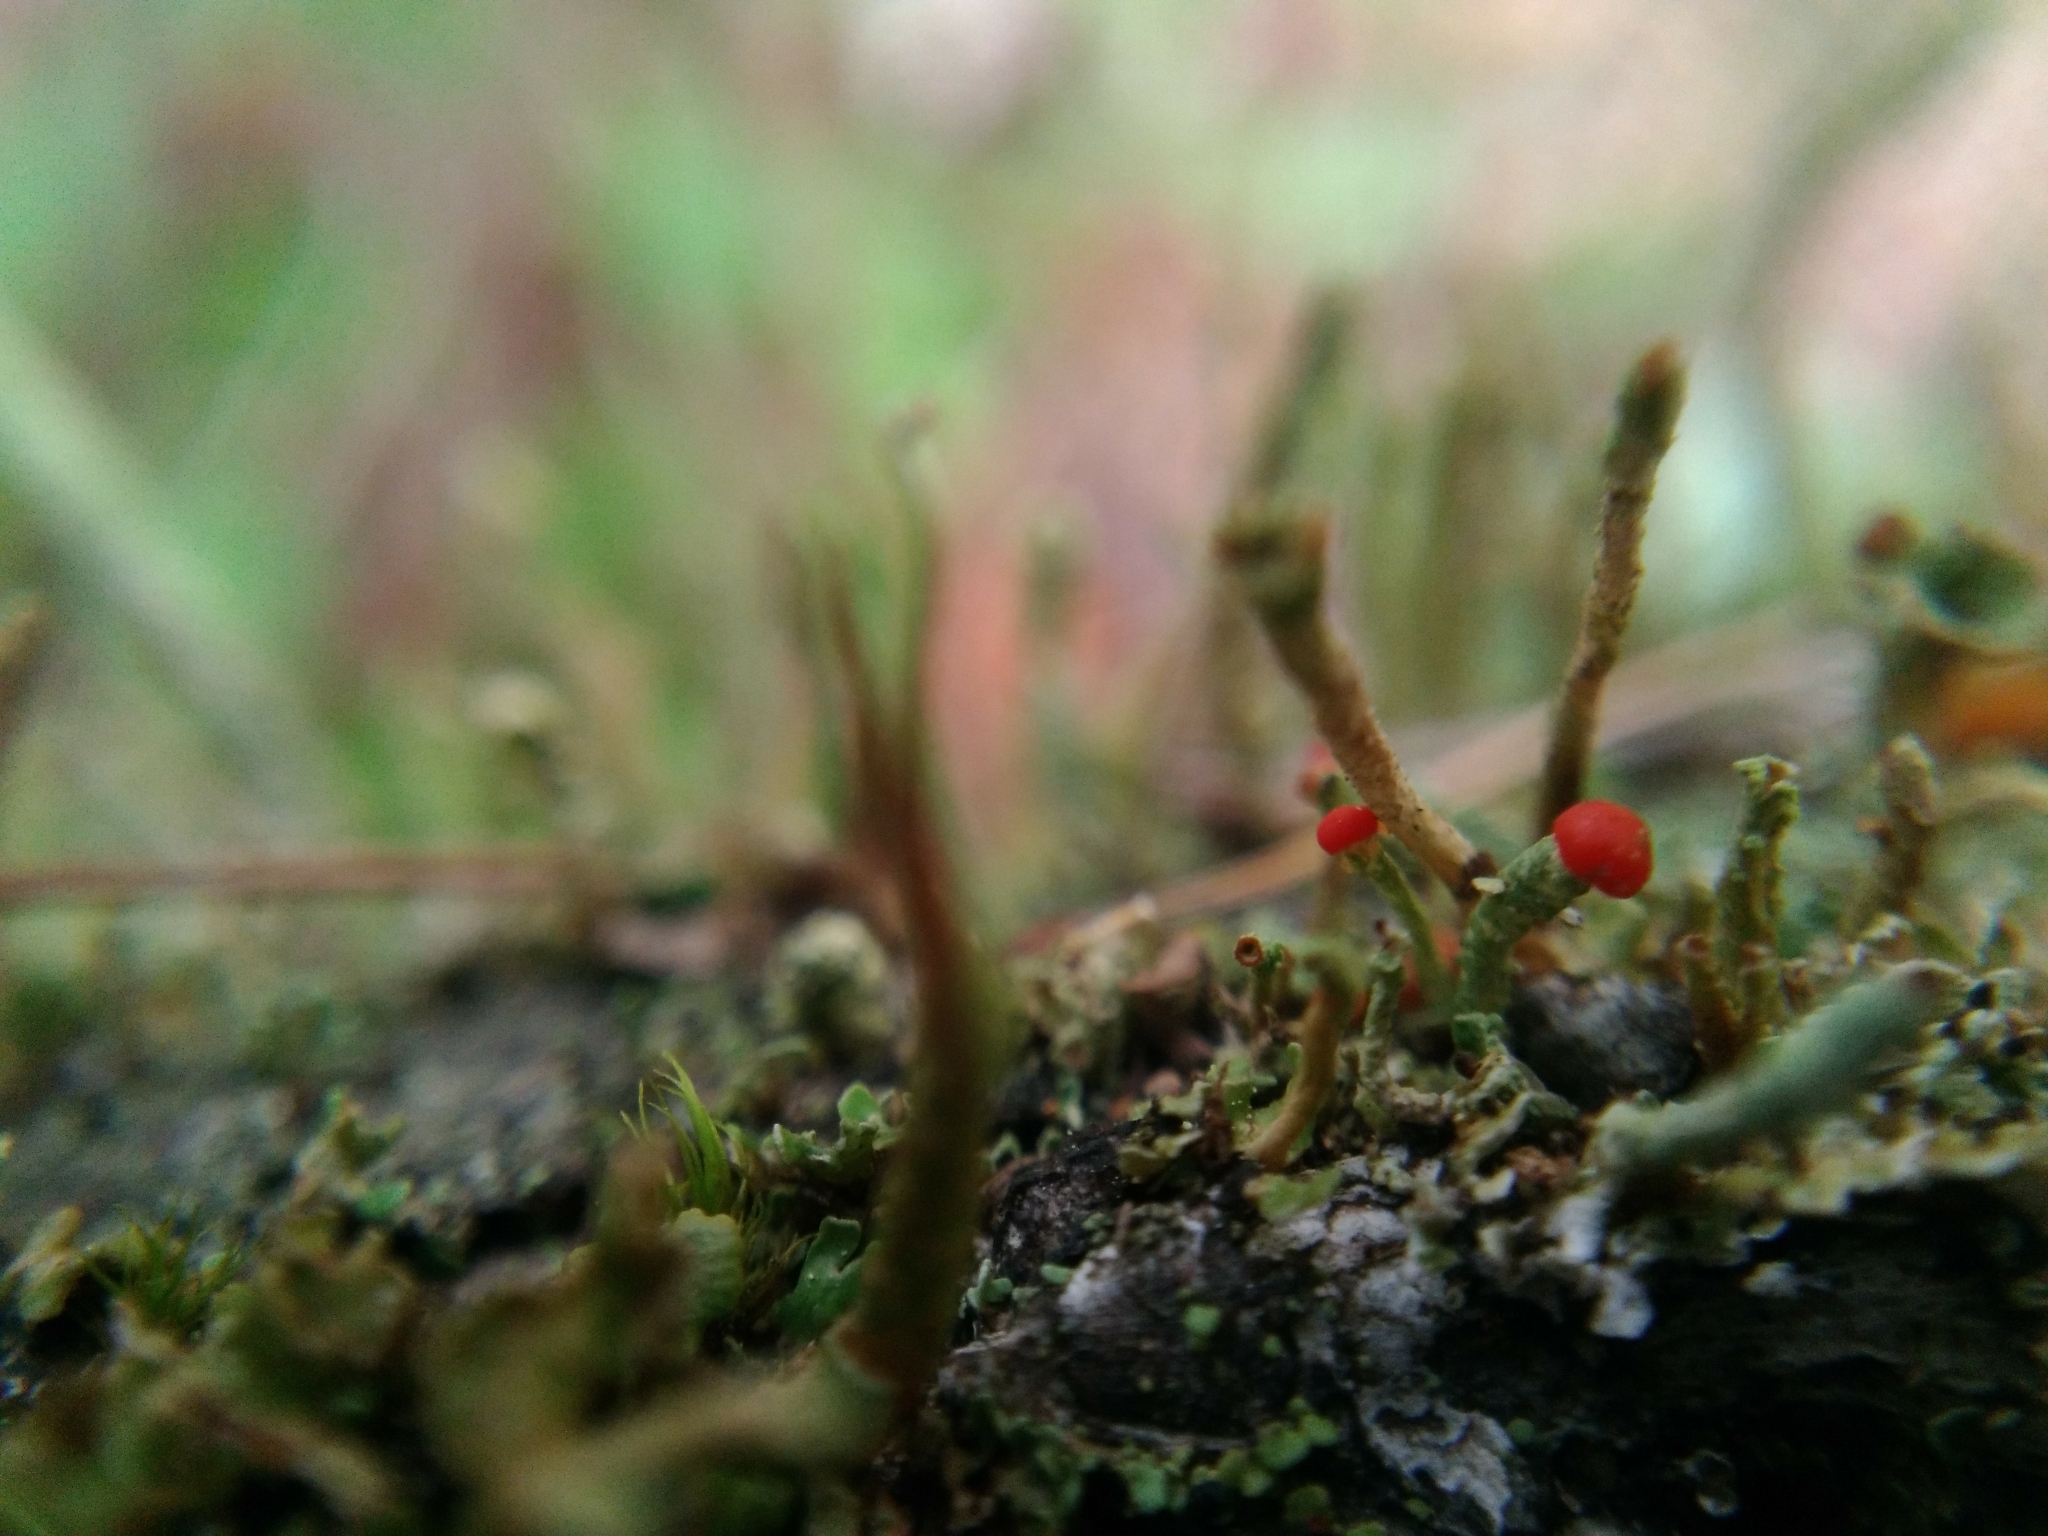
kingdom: Fungi
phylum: Ascomycota
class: Lecanoromycetes
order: Lecanorales
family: Cladoniaceae
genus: Cladonia
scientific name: Cladonia cristatella
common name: British soldier lichen
